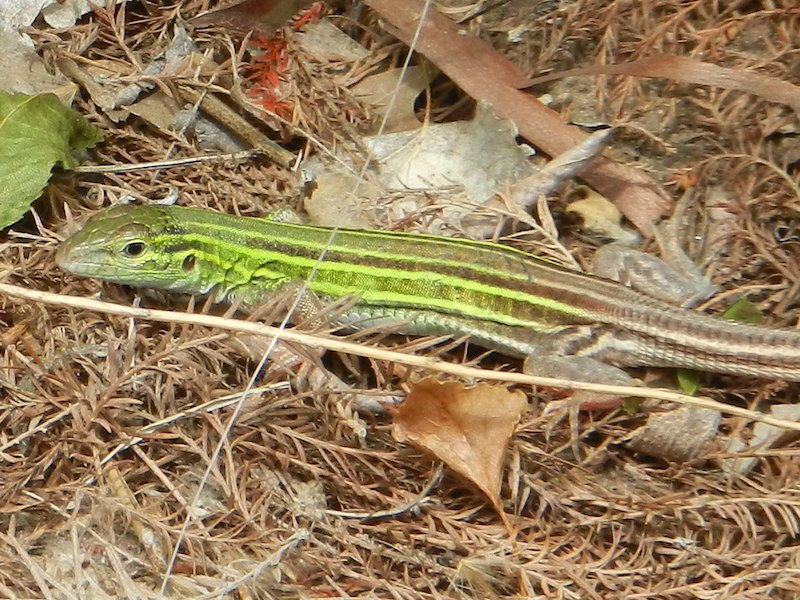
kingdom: Animalia
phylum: Chordata
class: Squamata
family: Teiidae
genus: Aspidoscelis
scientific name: Aspidoscelis sexlineatus
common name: Six-lined racerunner
